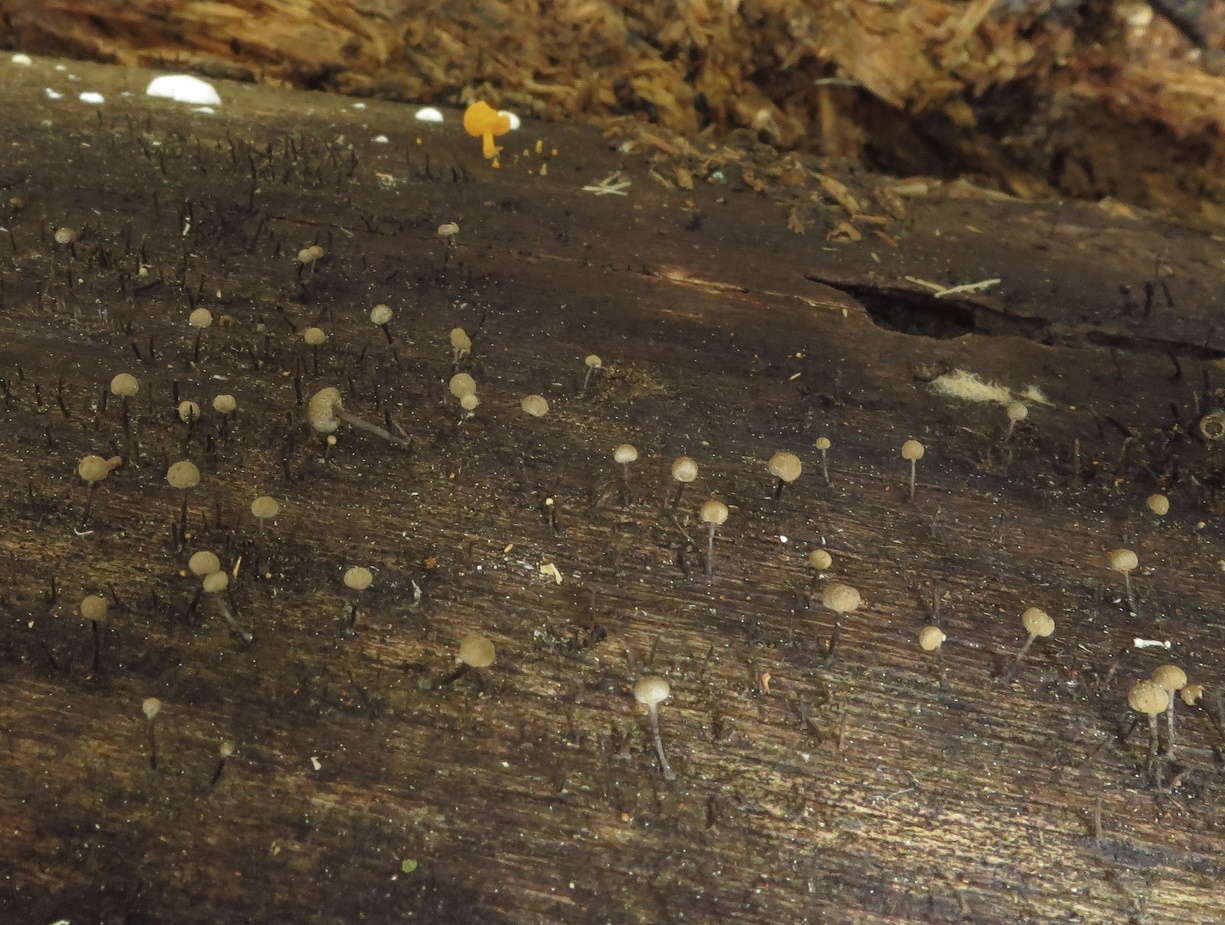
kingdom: Fungi
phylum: Basidiomycota
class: Atractiellomycetes
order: Atractiellales
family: Phleogenaceae
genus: Phleogena
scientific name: Phleogena faginea
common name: Fenugreek stalkball
